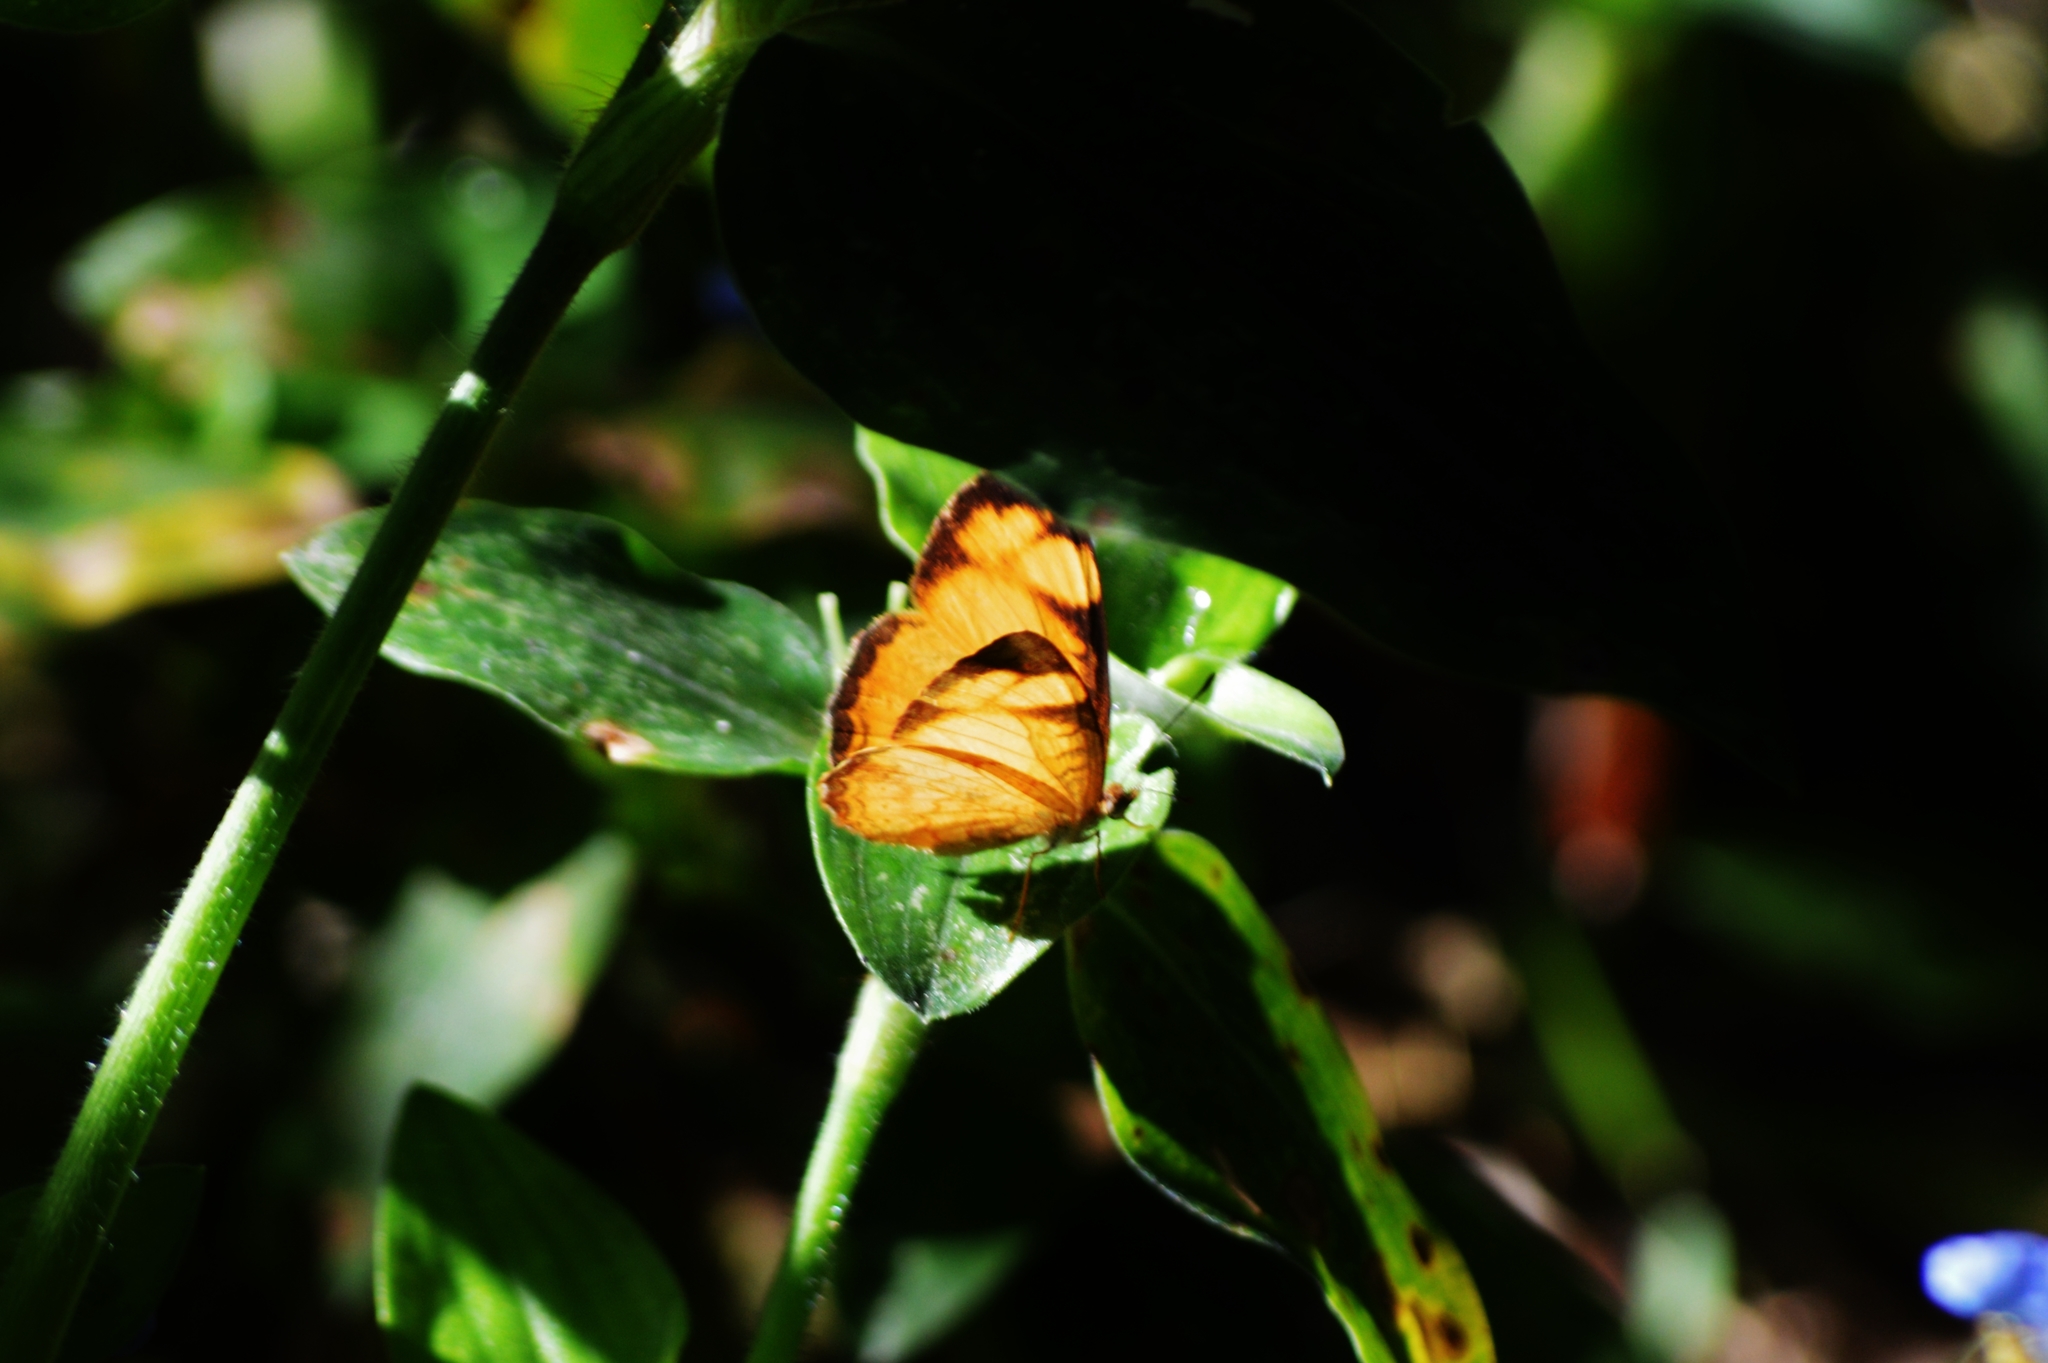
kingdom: Animalia
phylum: Arthropoda
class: Insecta
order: Lepidoptera
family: Nymphalidae
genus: Tegosa
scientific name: Tegosa claudina
